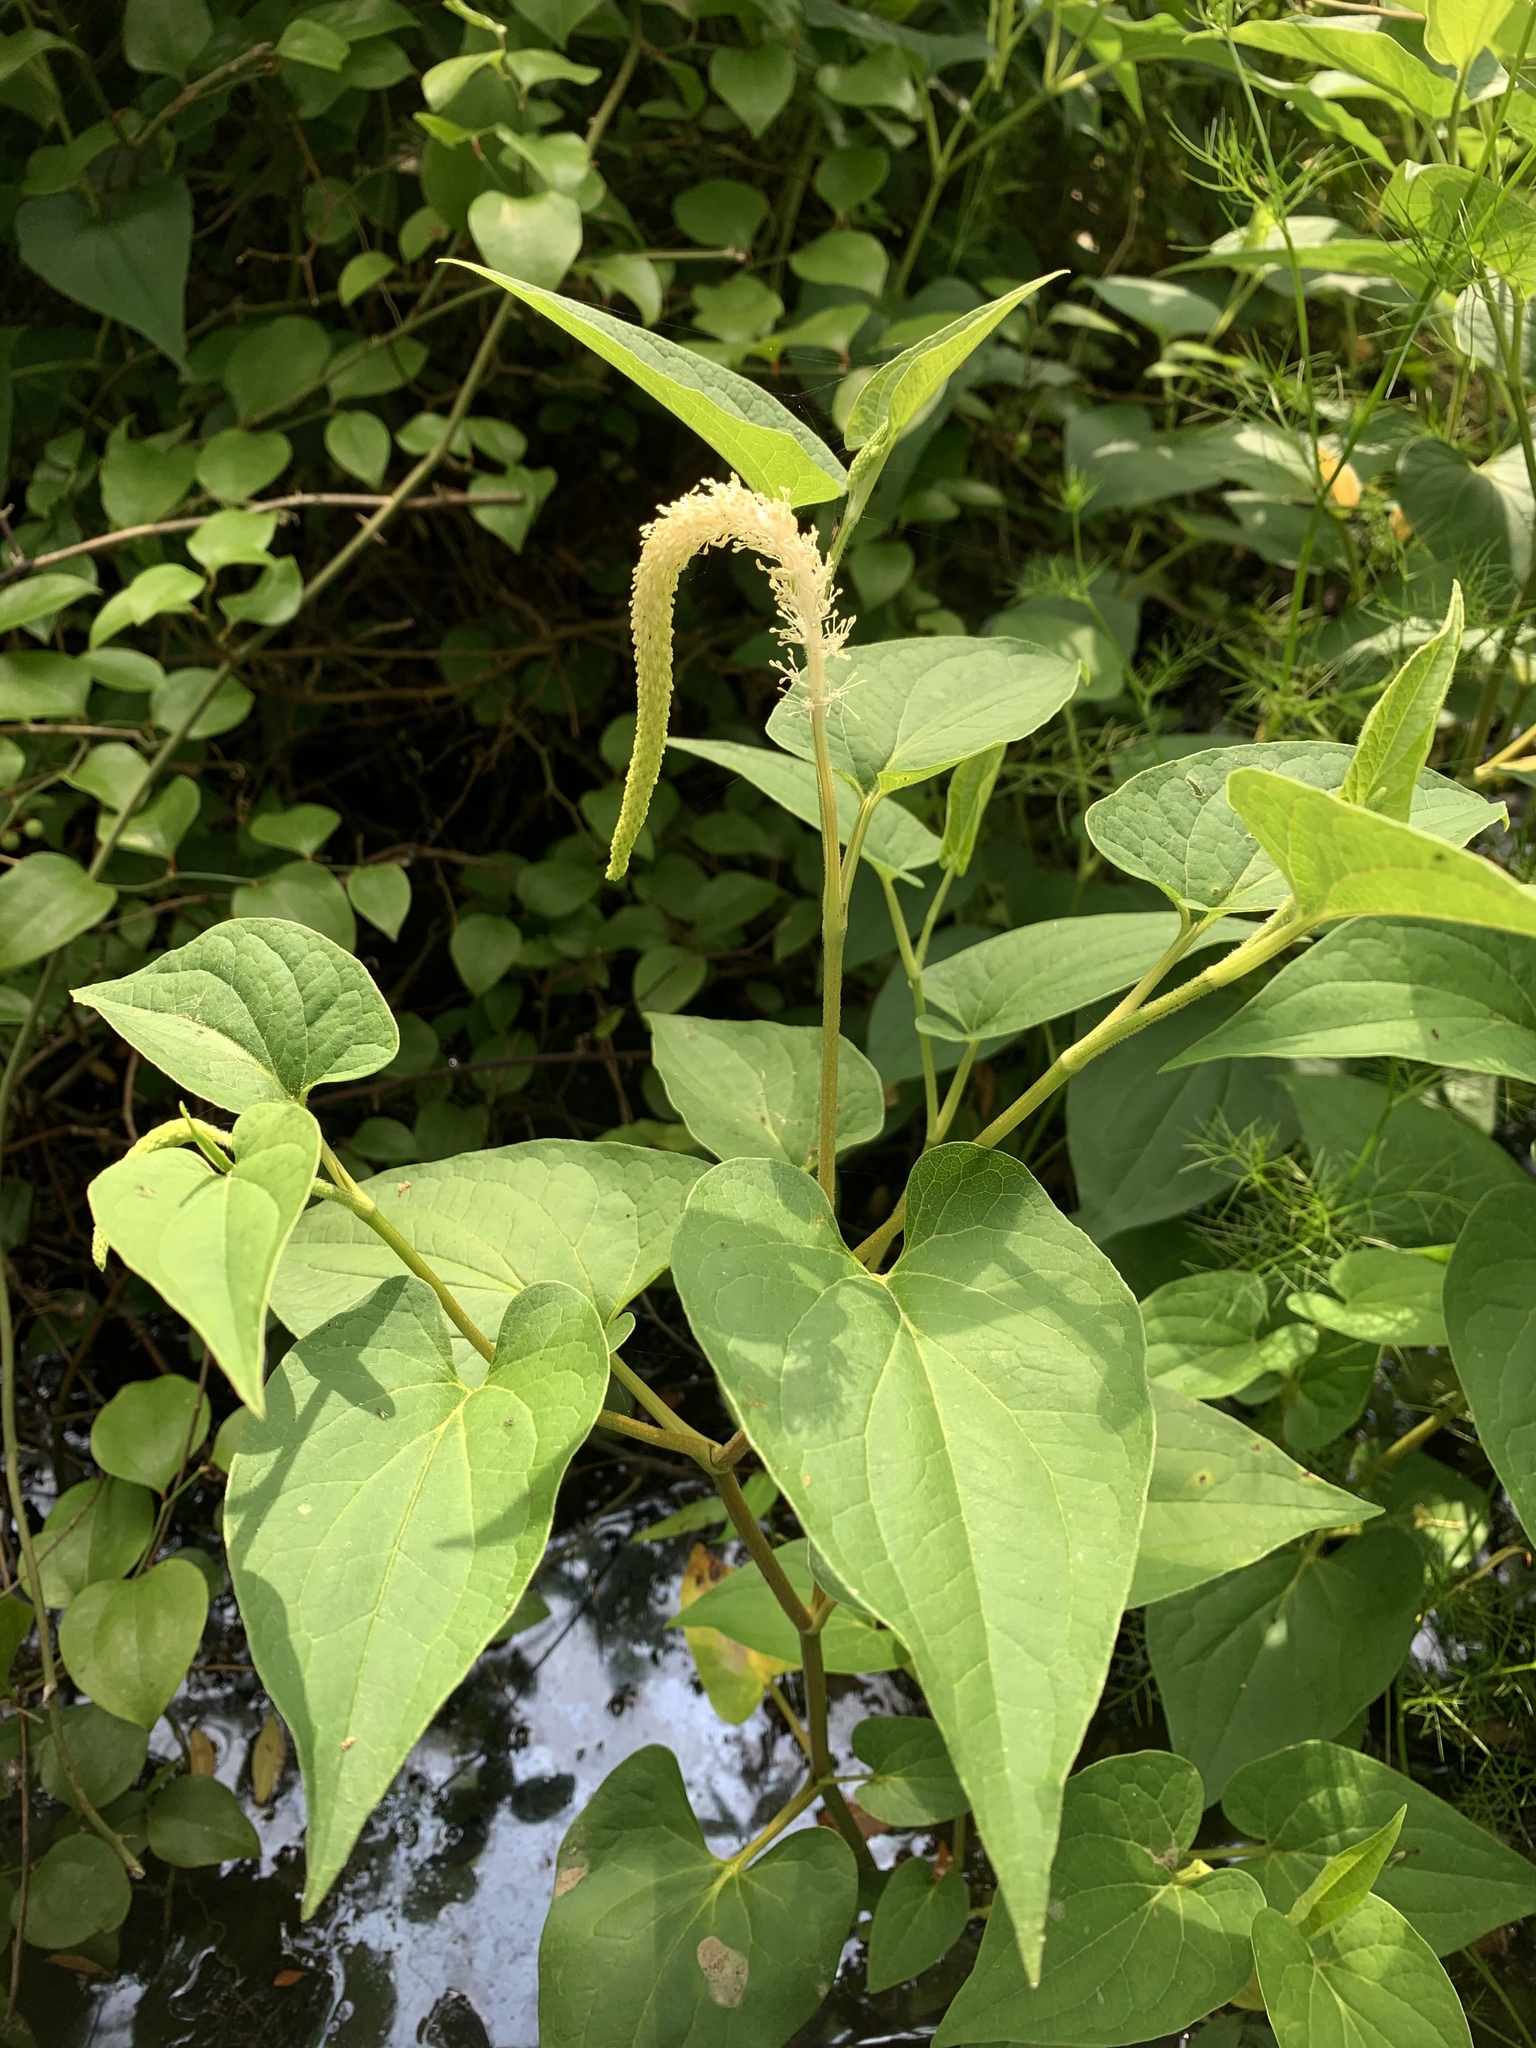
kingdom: Plantae
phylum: Tracheophyta
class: Magnoliopsida
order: Piperales
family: Saururaceae
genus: Saururus
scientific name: Saururus cernuus
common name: Lizard's-tail
